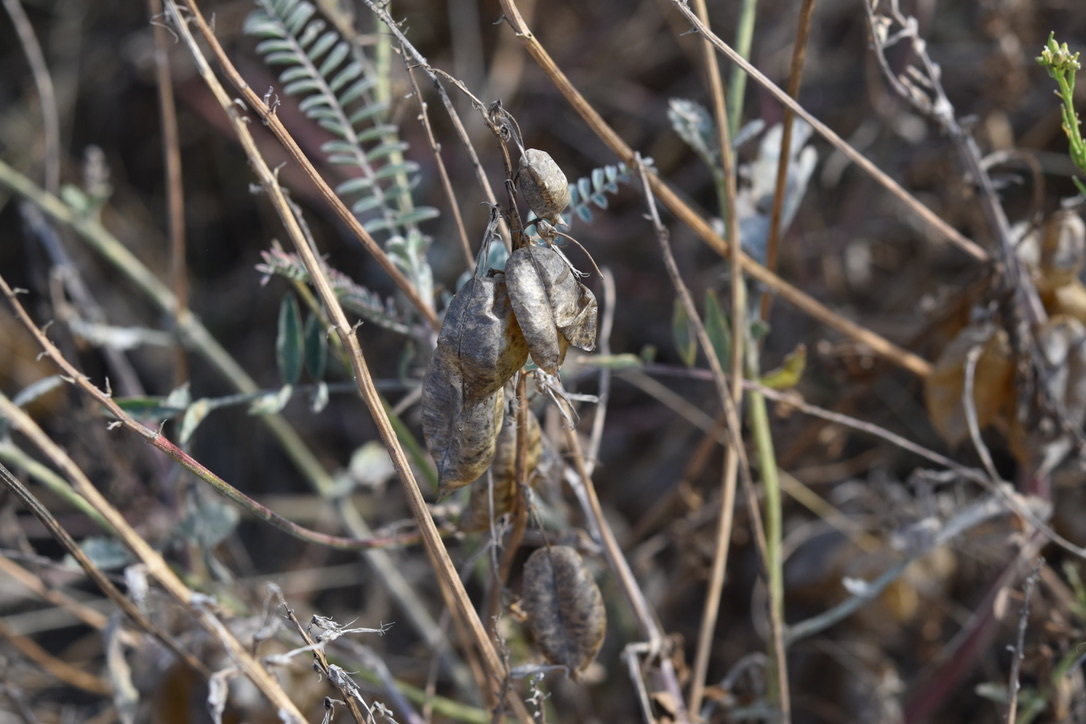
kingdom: Plantae
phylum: Tracheophyta
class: Magnoliopsida
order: Fabales
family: Fabaceae
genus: Astragalus
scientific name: Astragalus trichopodus
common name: Santa barbara milk-vetch
